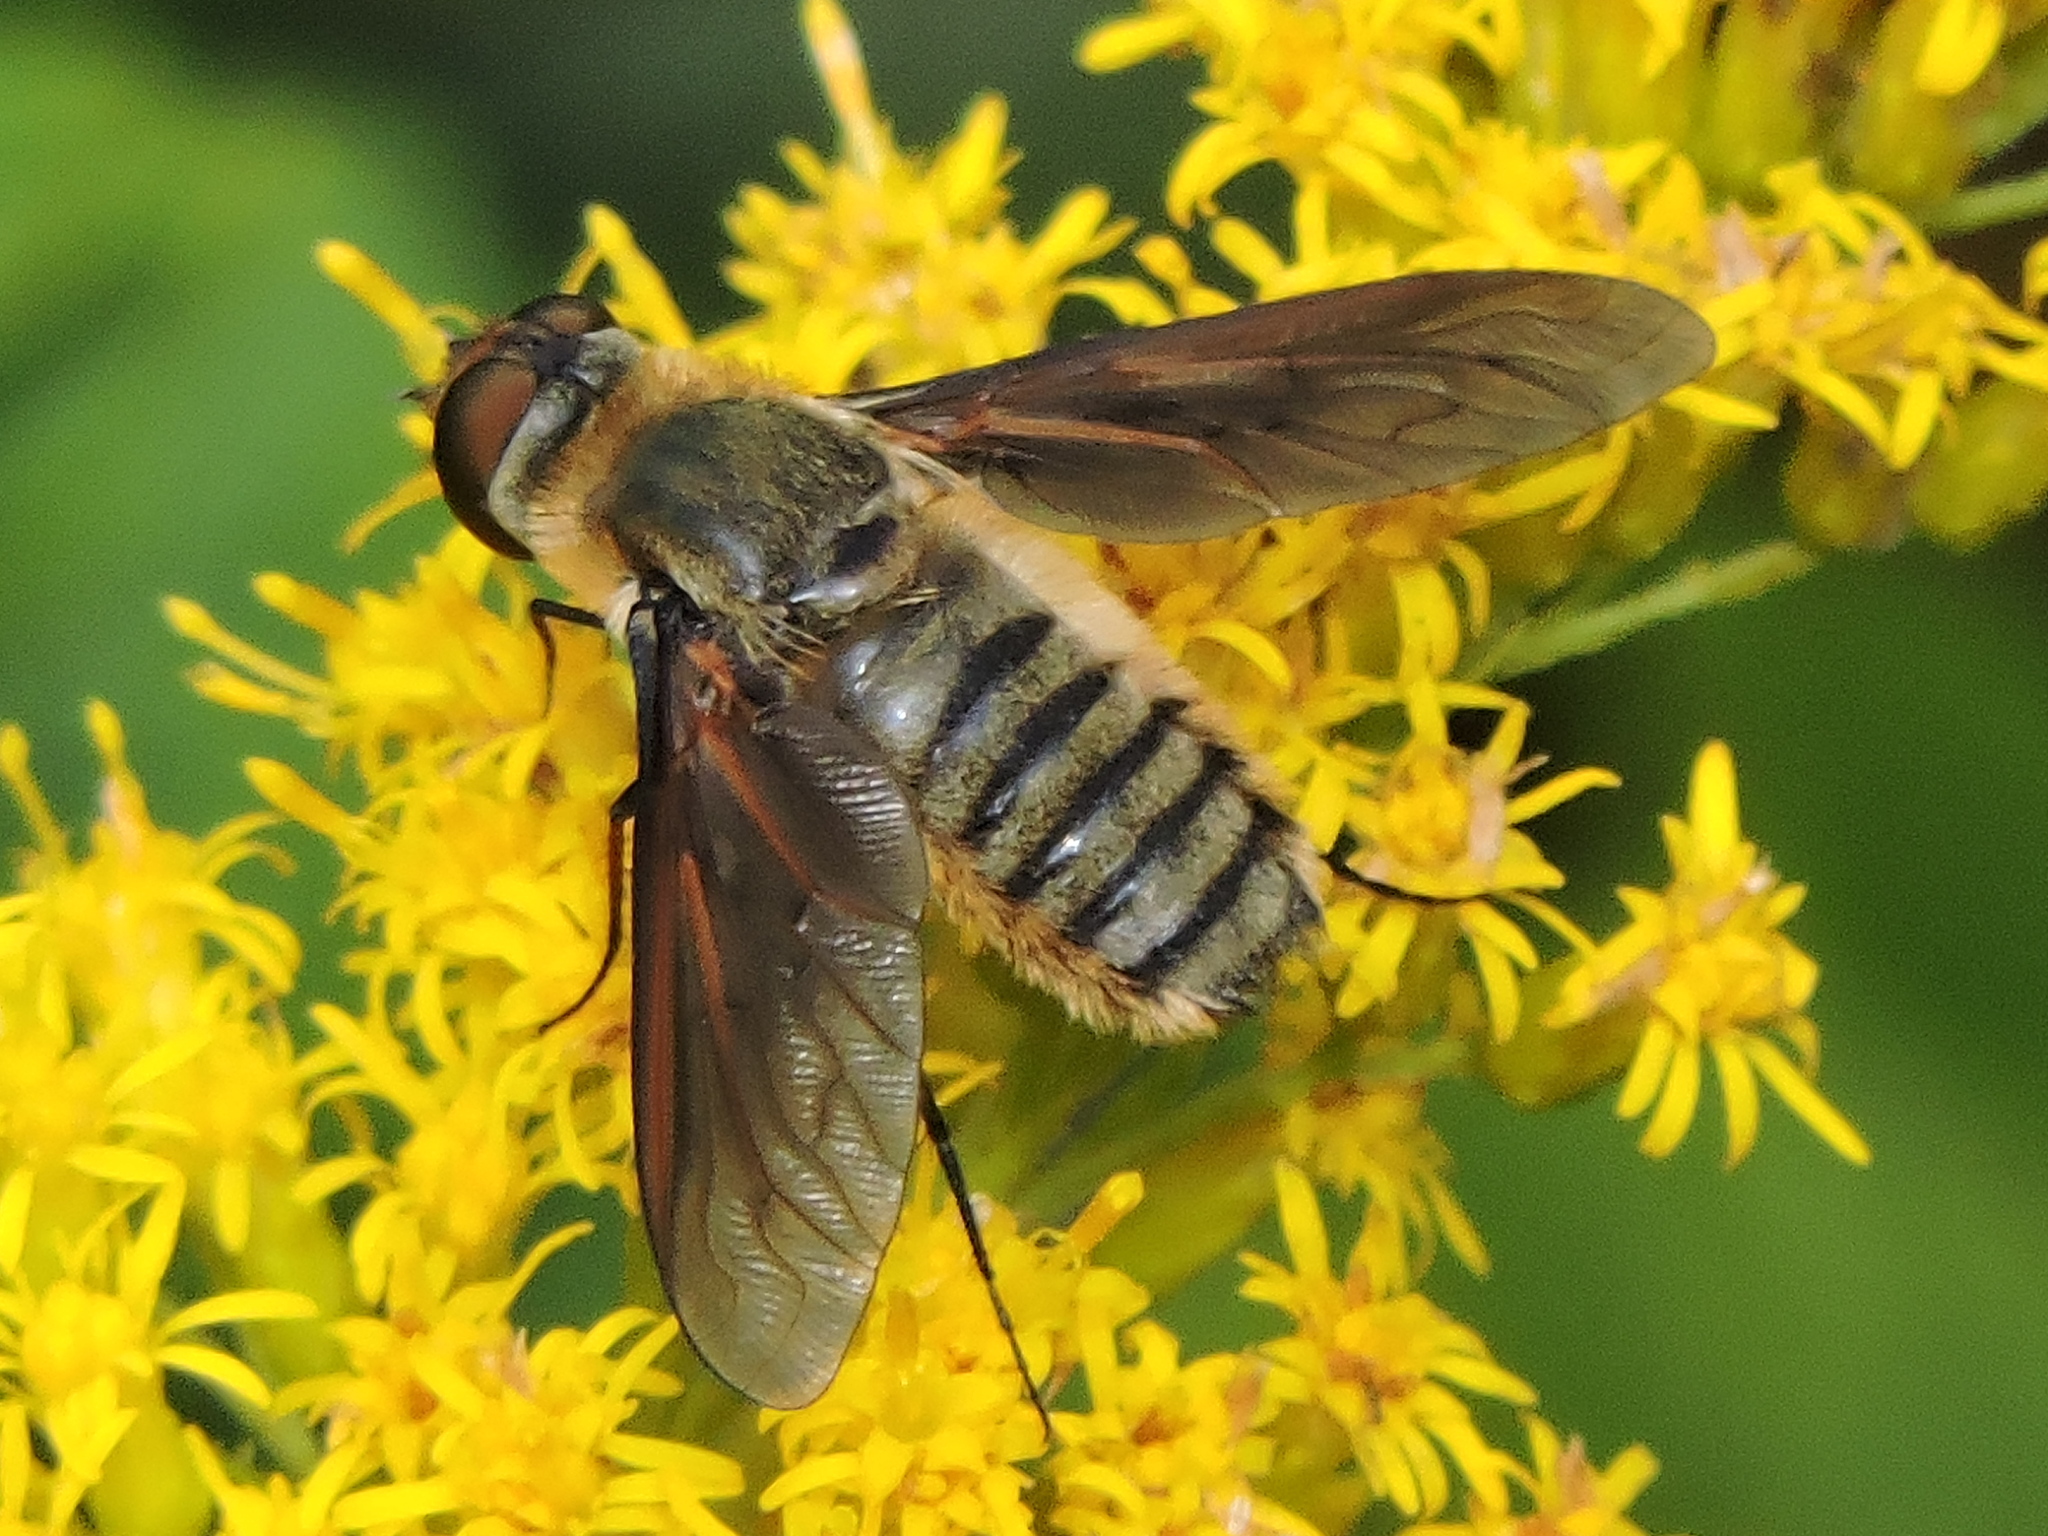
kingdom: Animalia
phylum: Arthropoda
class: Insecta
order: Diptera
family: Bombyliidae
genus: Poecilanthrax
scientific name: Poecilanthrax lucifer
